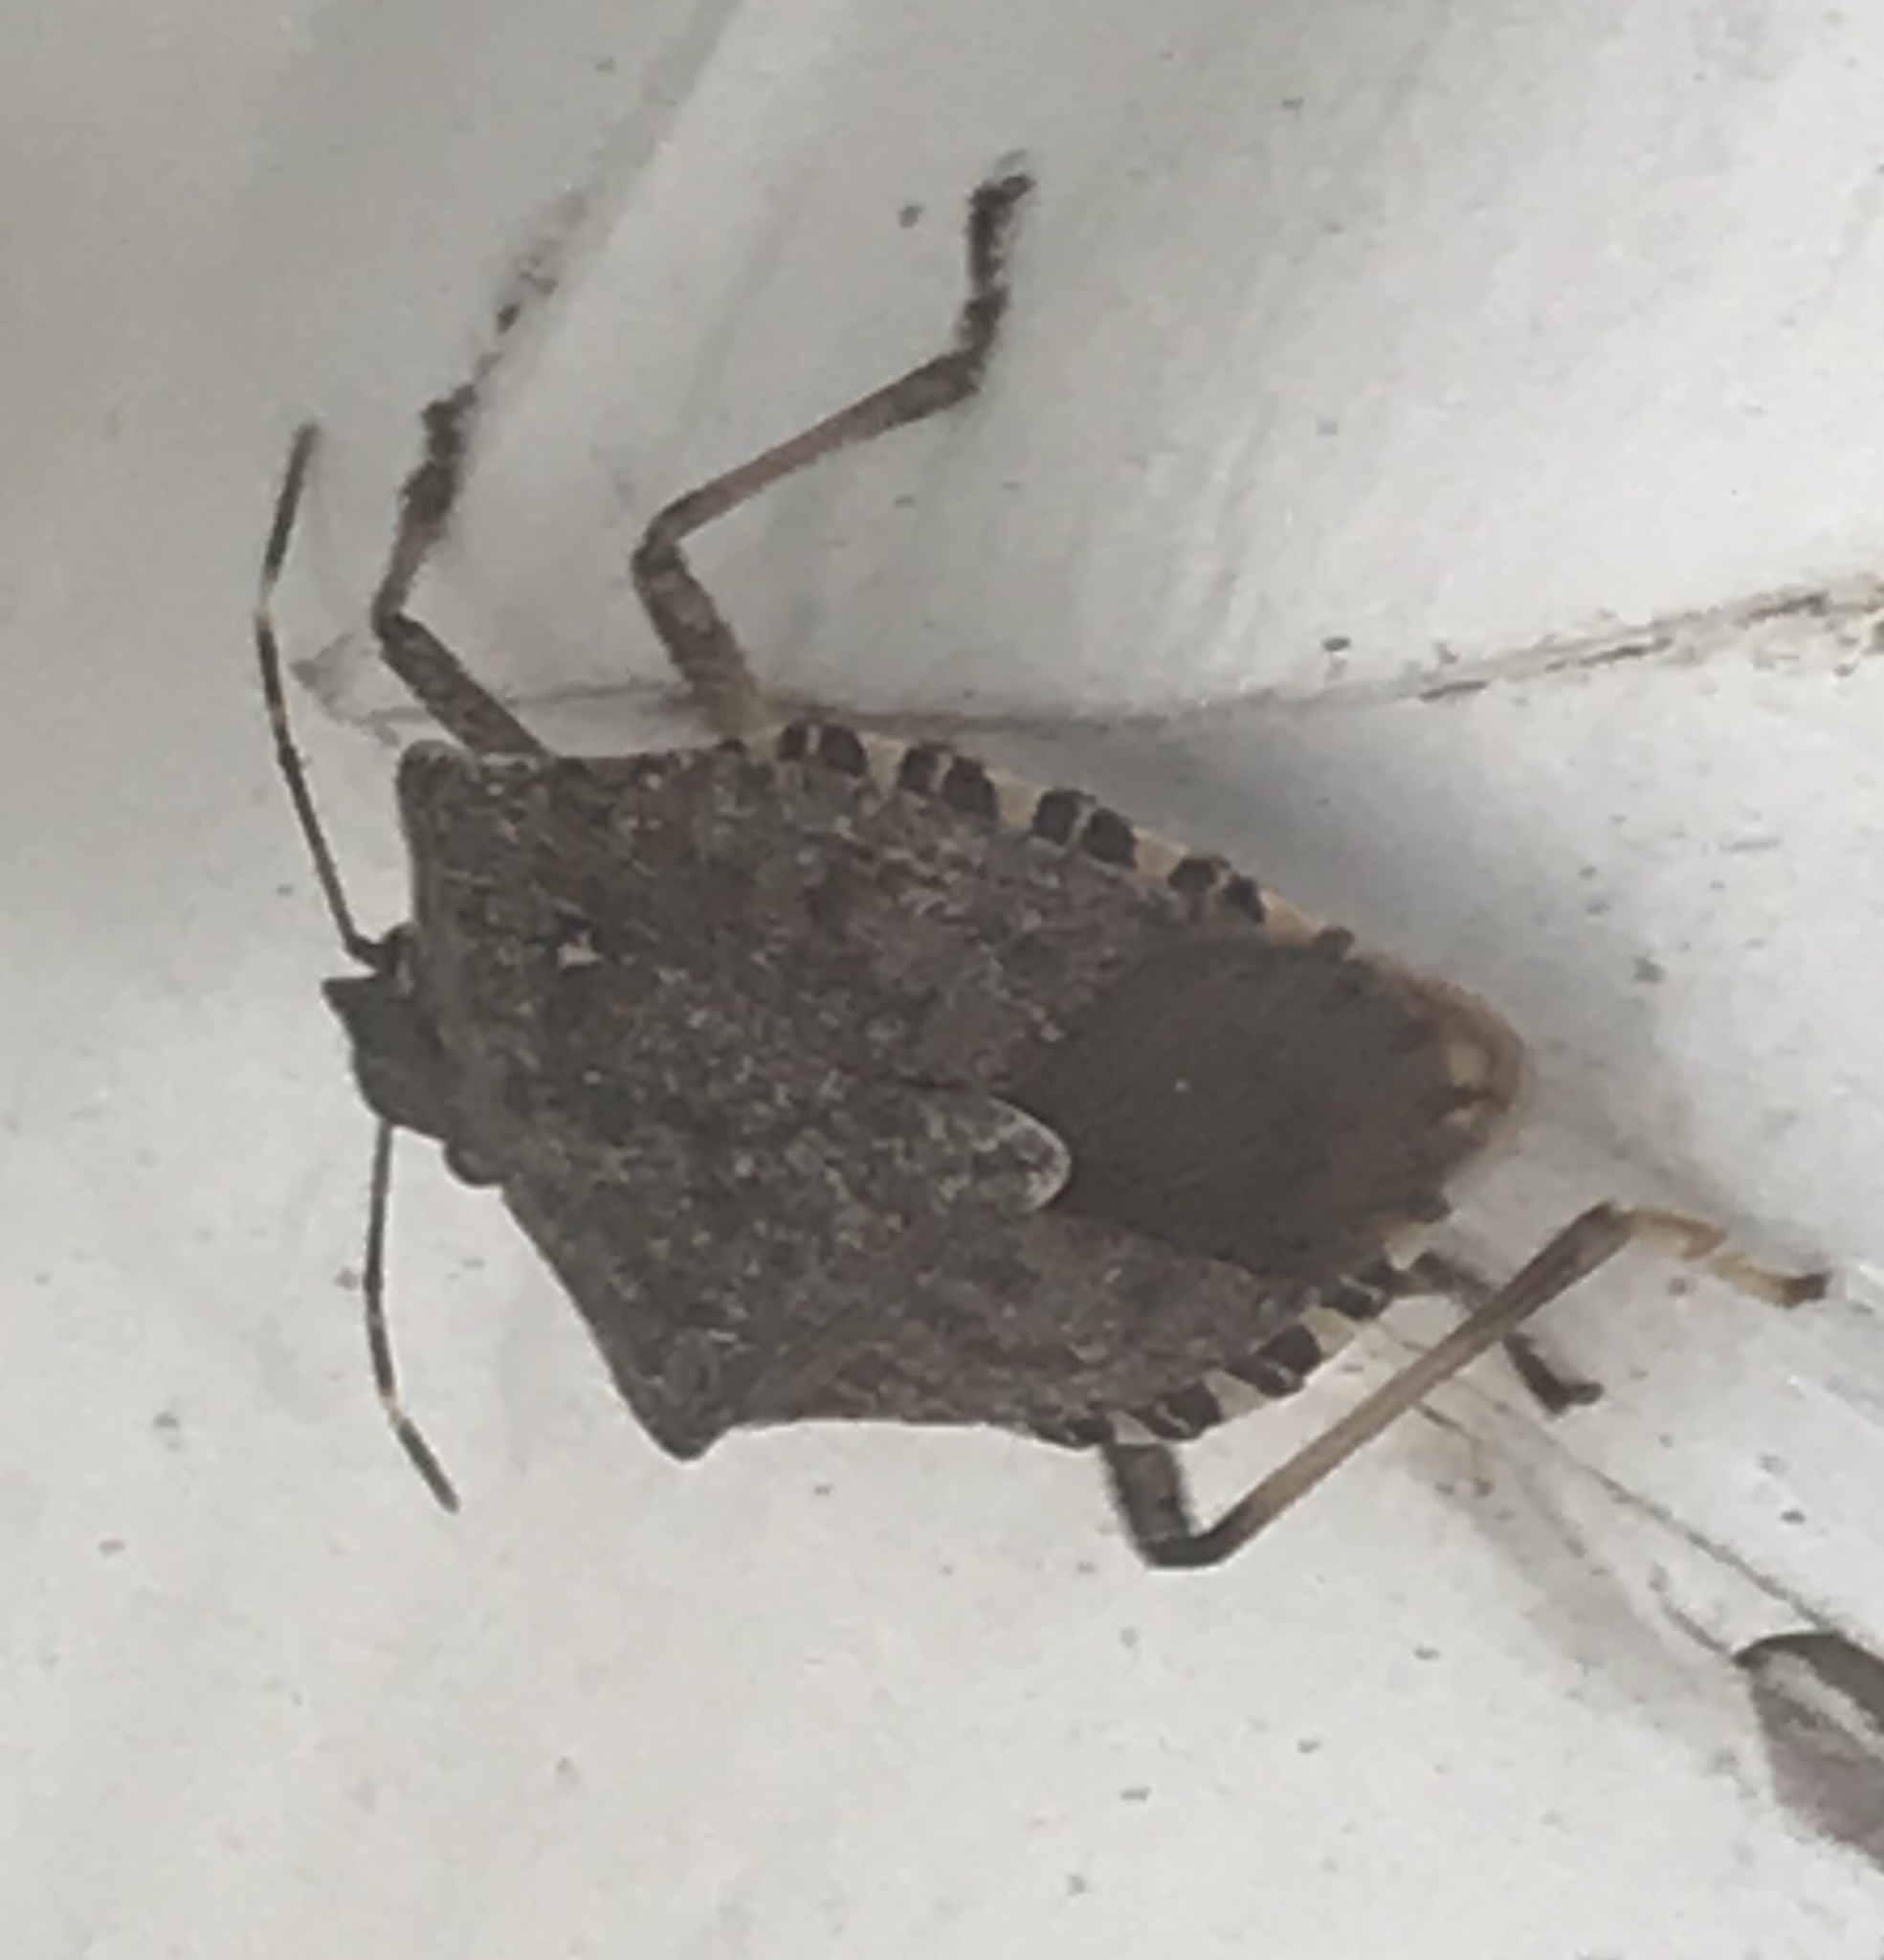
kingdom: Animalia
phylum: Arthropoda
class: Insecta
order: Hemiptera
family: Pentatomidae
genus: Halyomorpha
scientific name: Halyomorpha halys
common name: Brown marmorated stink bug
